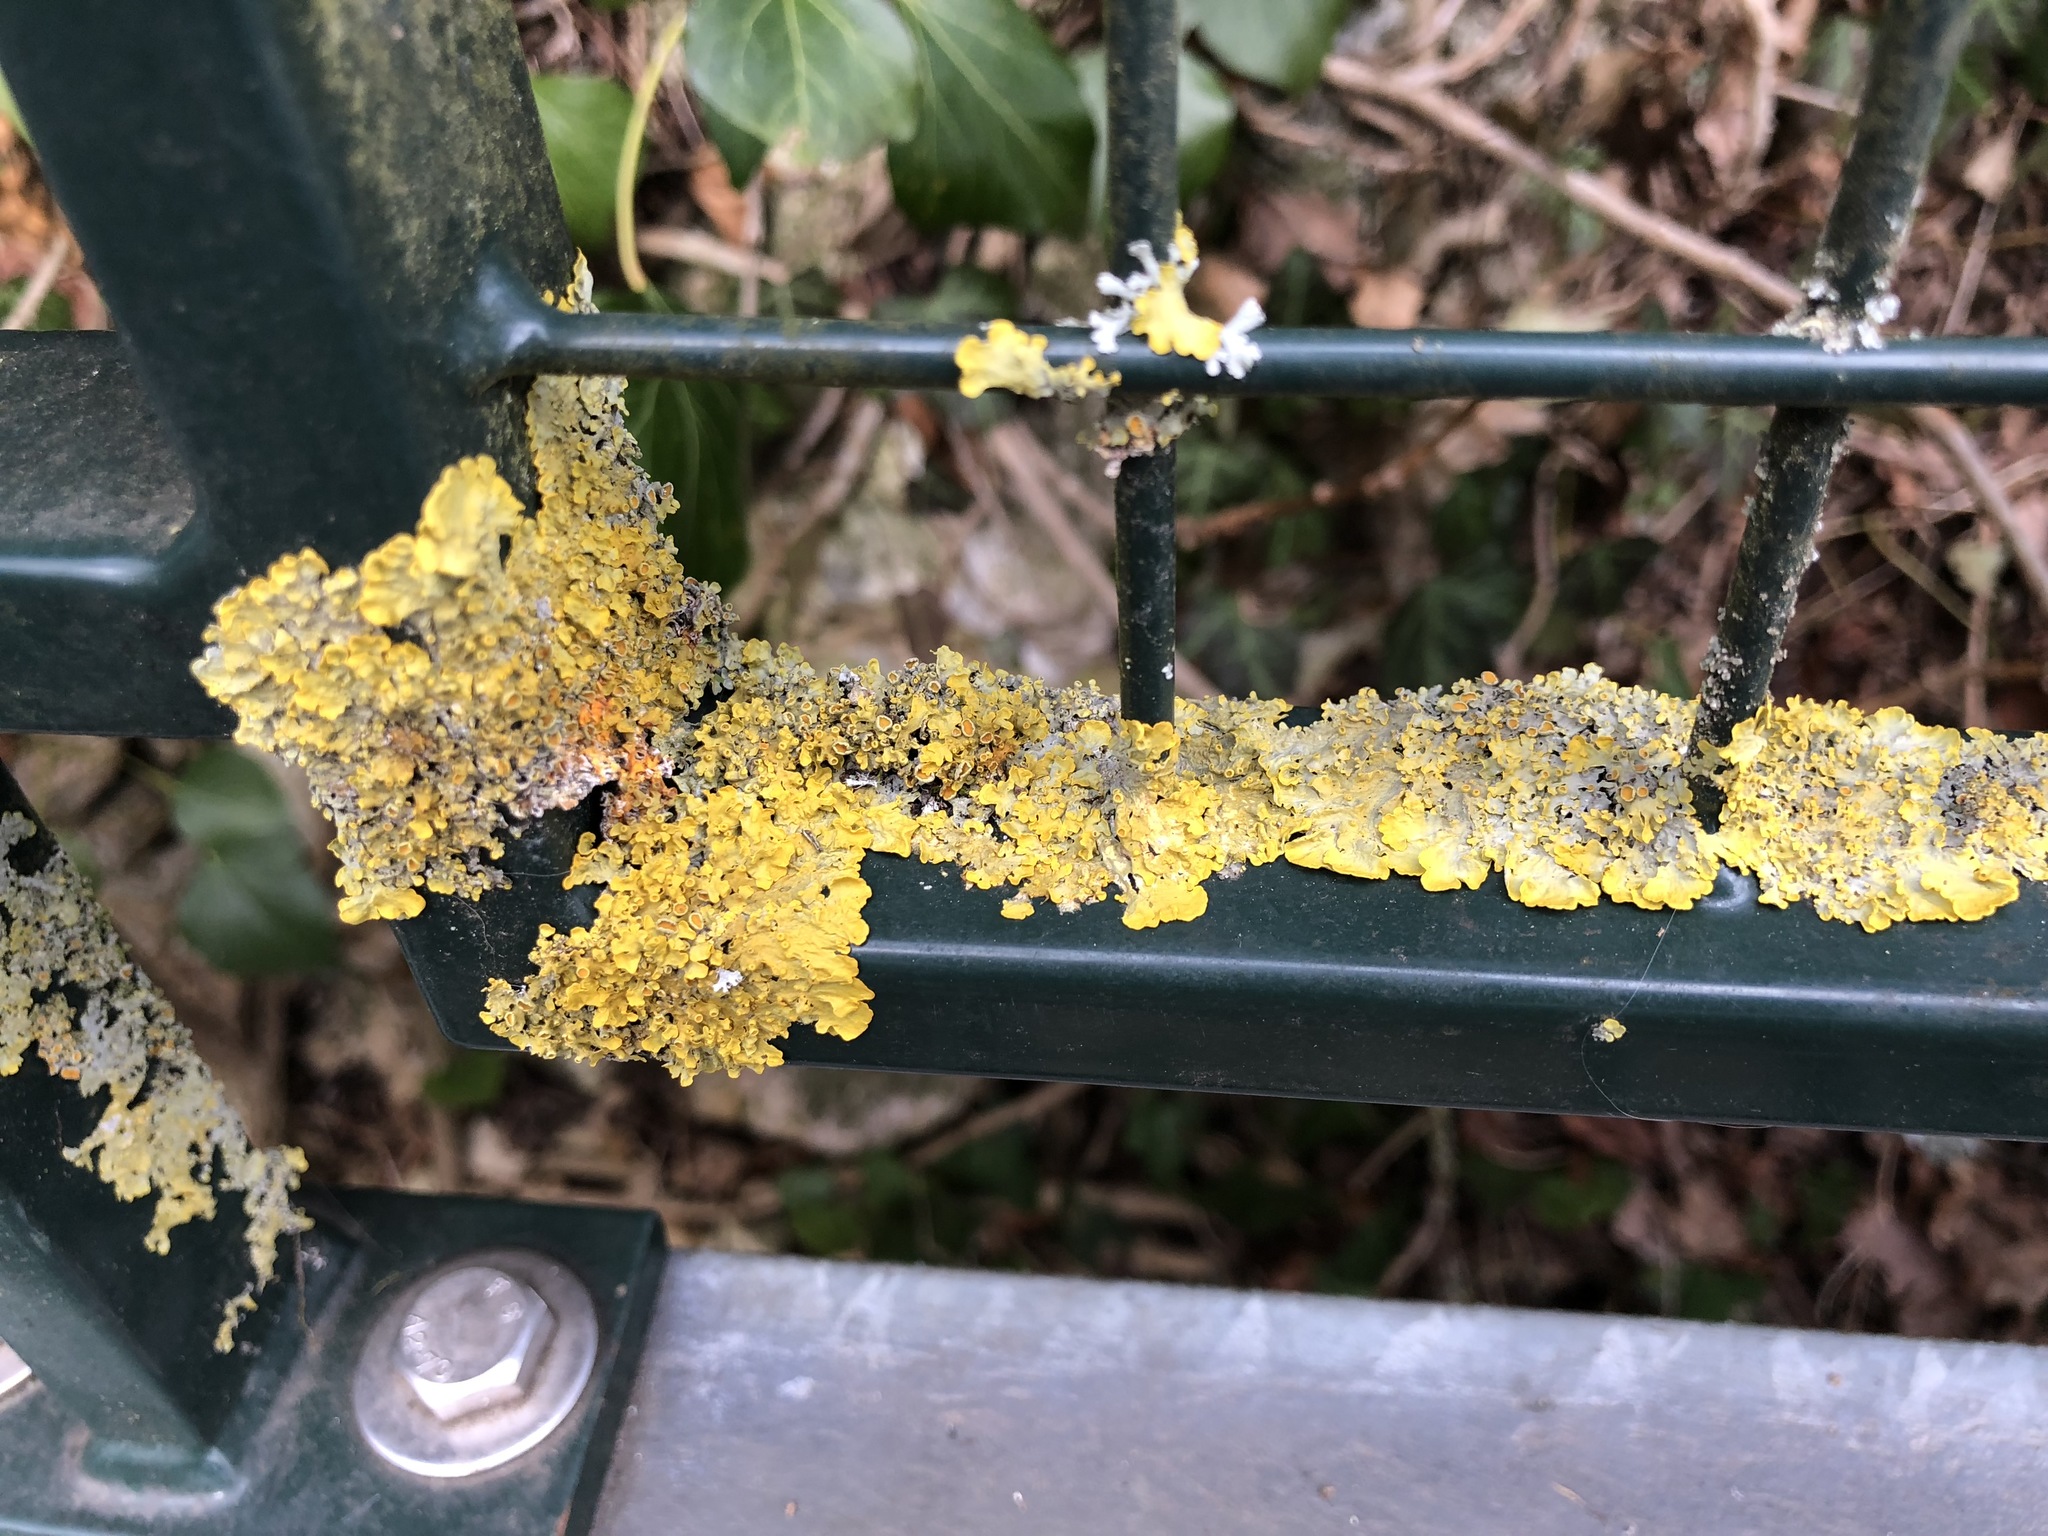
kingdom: Fungi
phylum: Ascomycota
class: Lecanoromycetes
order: Teloschistales
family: Teloschistaceae
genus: Xanthoria
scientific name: Xanthoria parietina
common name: Common orange lichen
